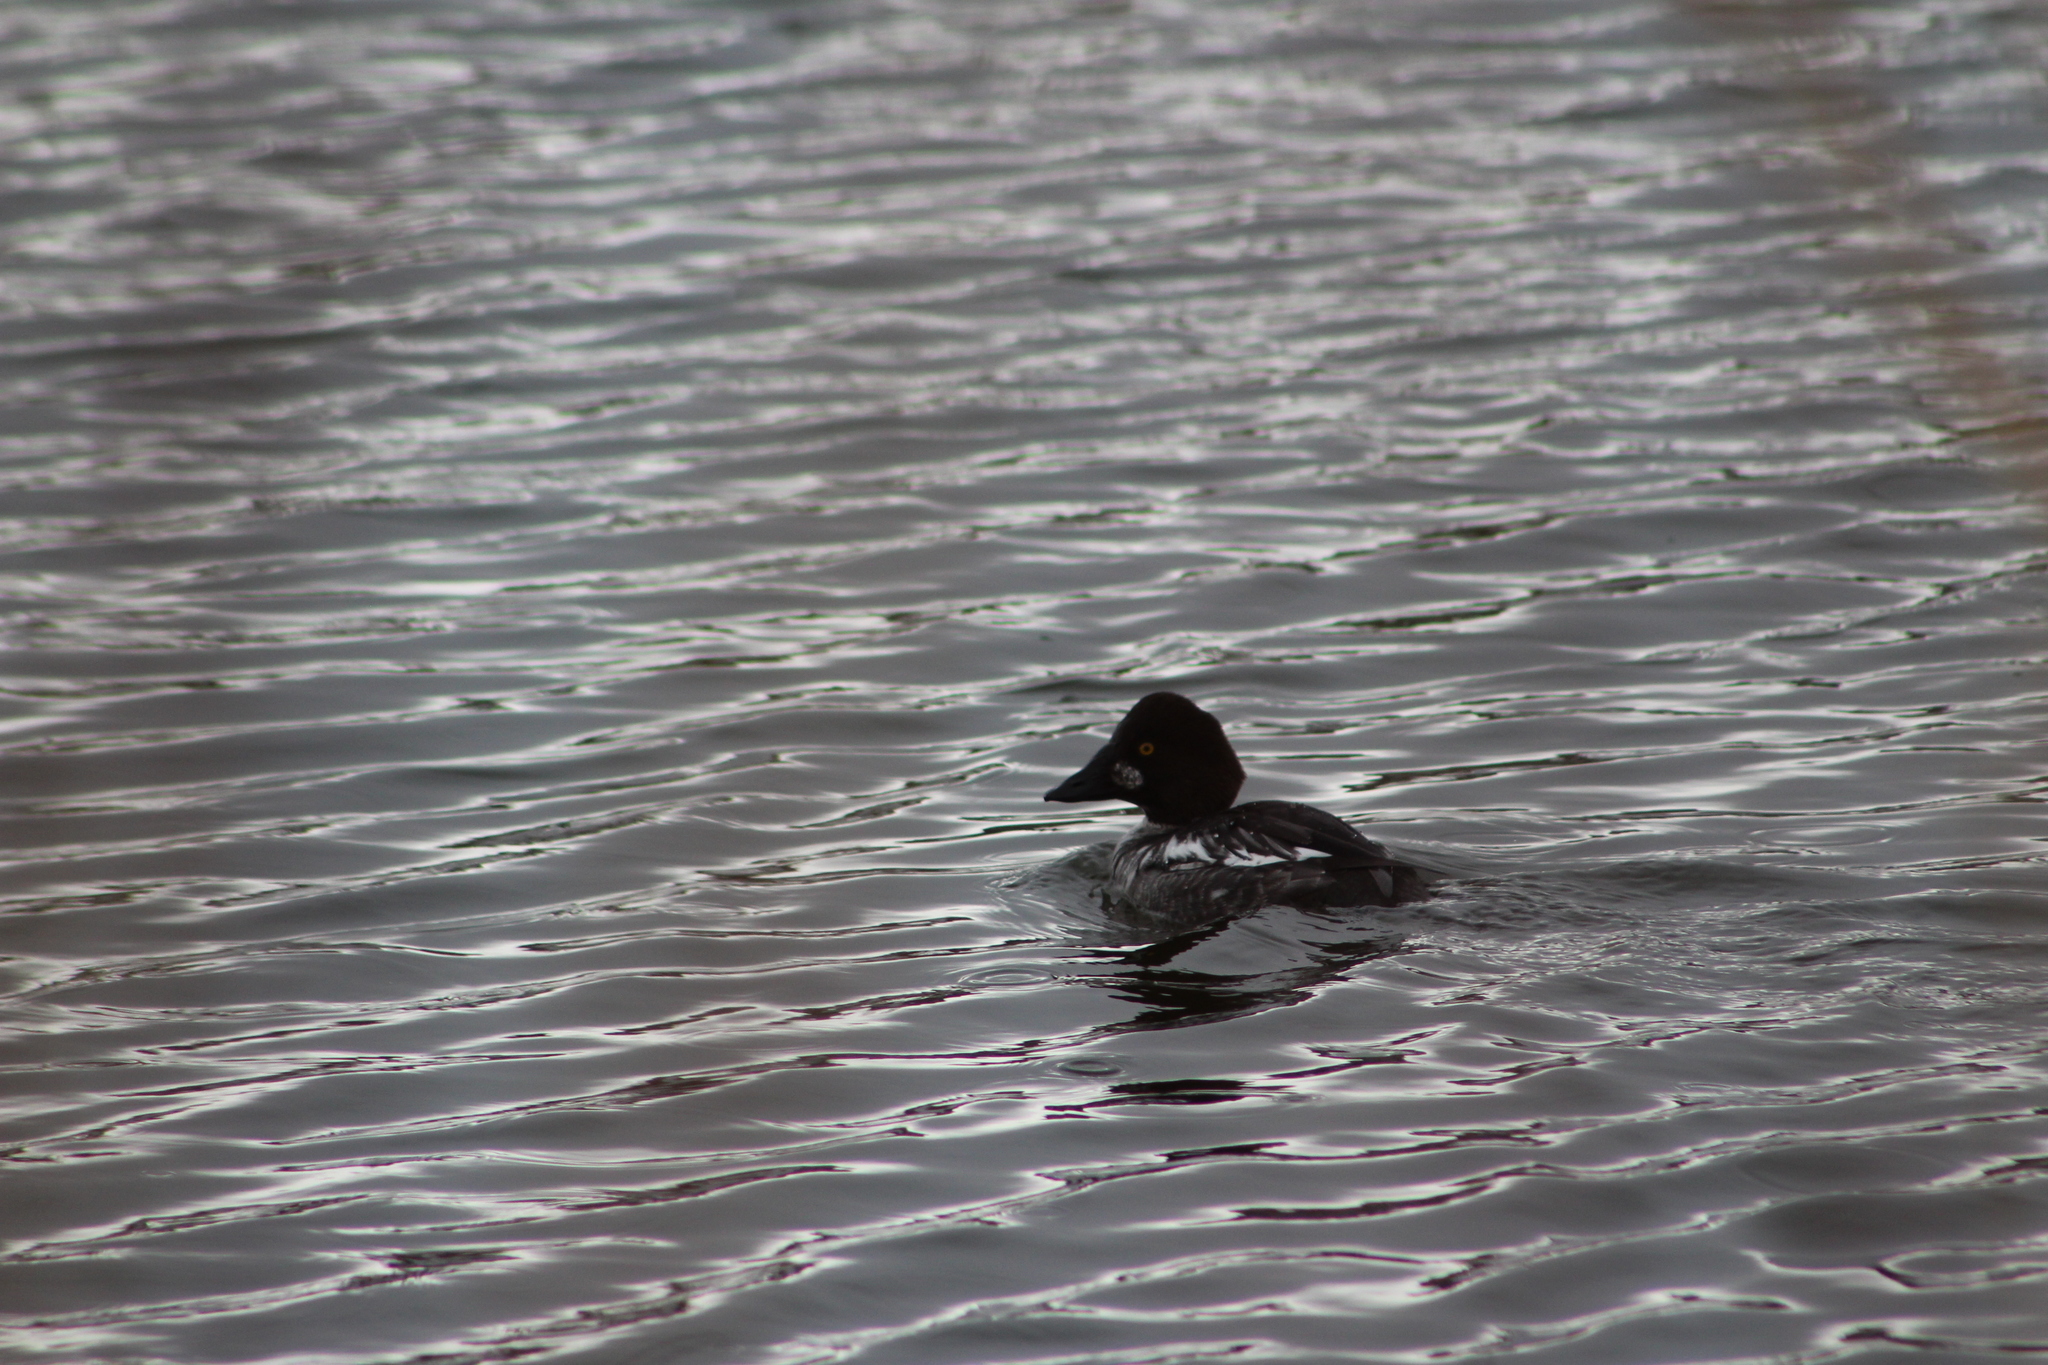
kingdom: Animalia
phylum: Chordata
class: Aves
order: Anseriformes
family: Anatidae
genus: Bucephala
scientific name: Bucephala clangula
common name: Common goldeneye
